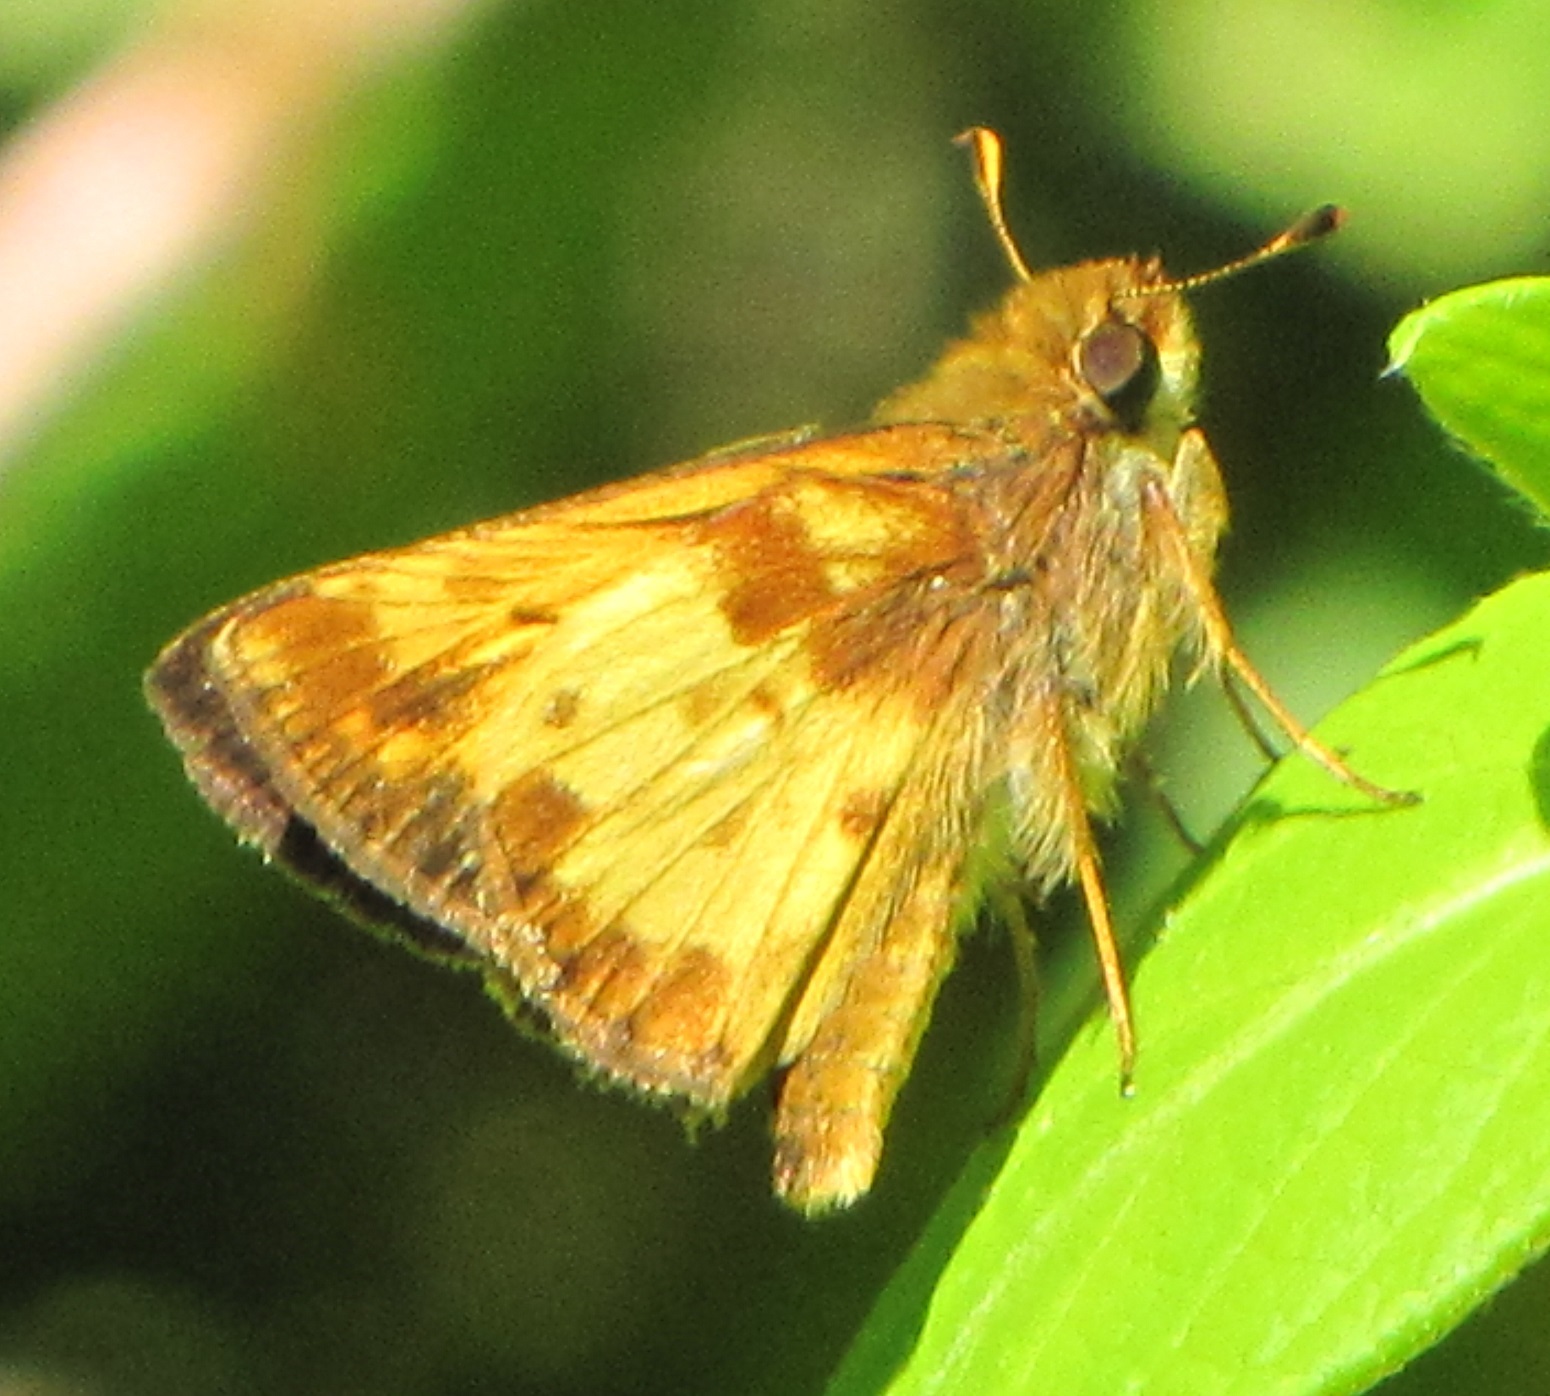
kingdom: Animalia
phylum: Arthropoda
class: Insecta
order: Lepidoptera
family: Hesperiidae
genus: Lon
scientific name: Lon zabulon
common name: Zabulon skipper
